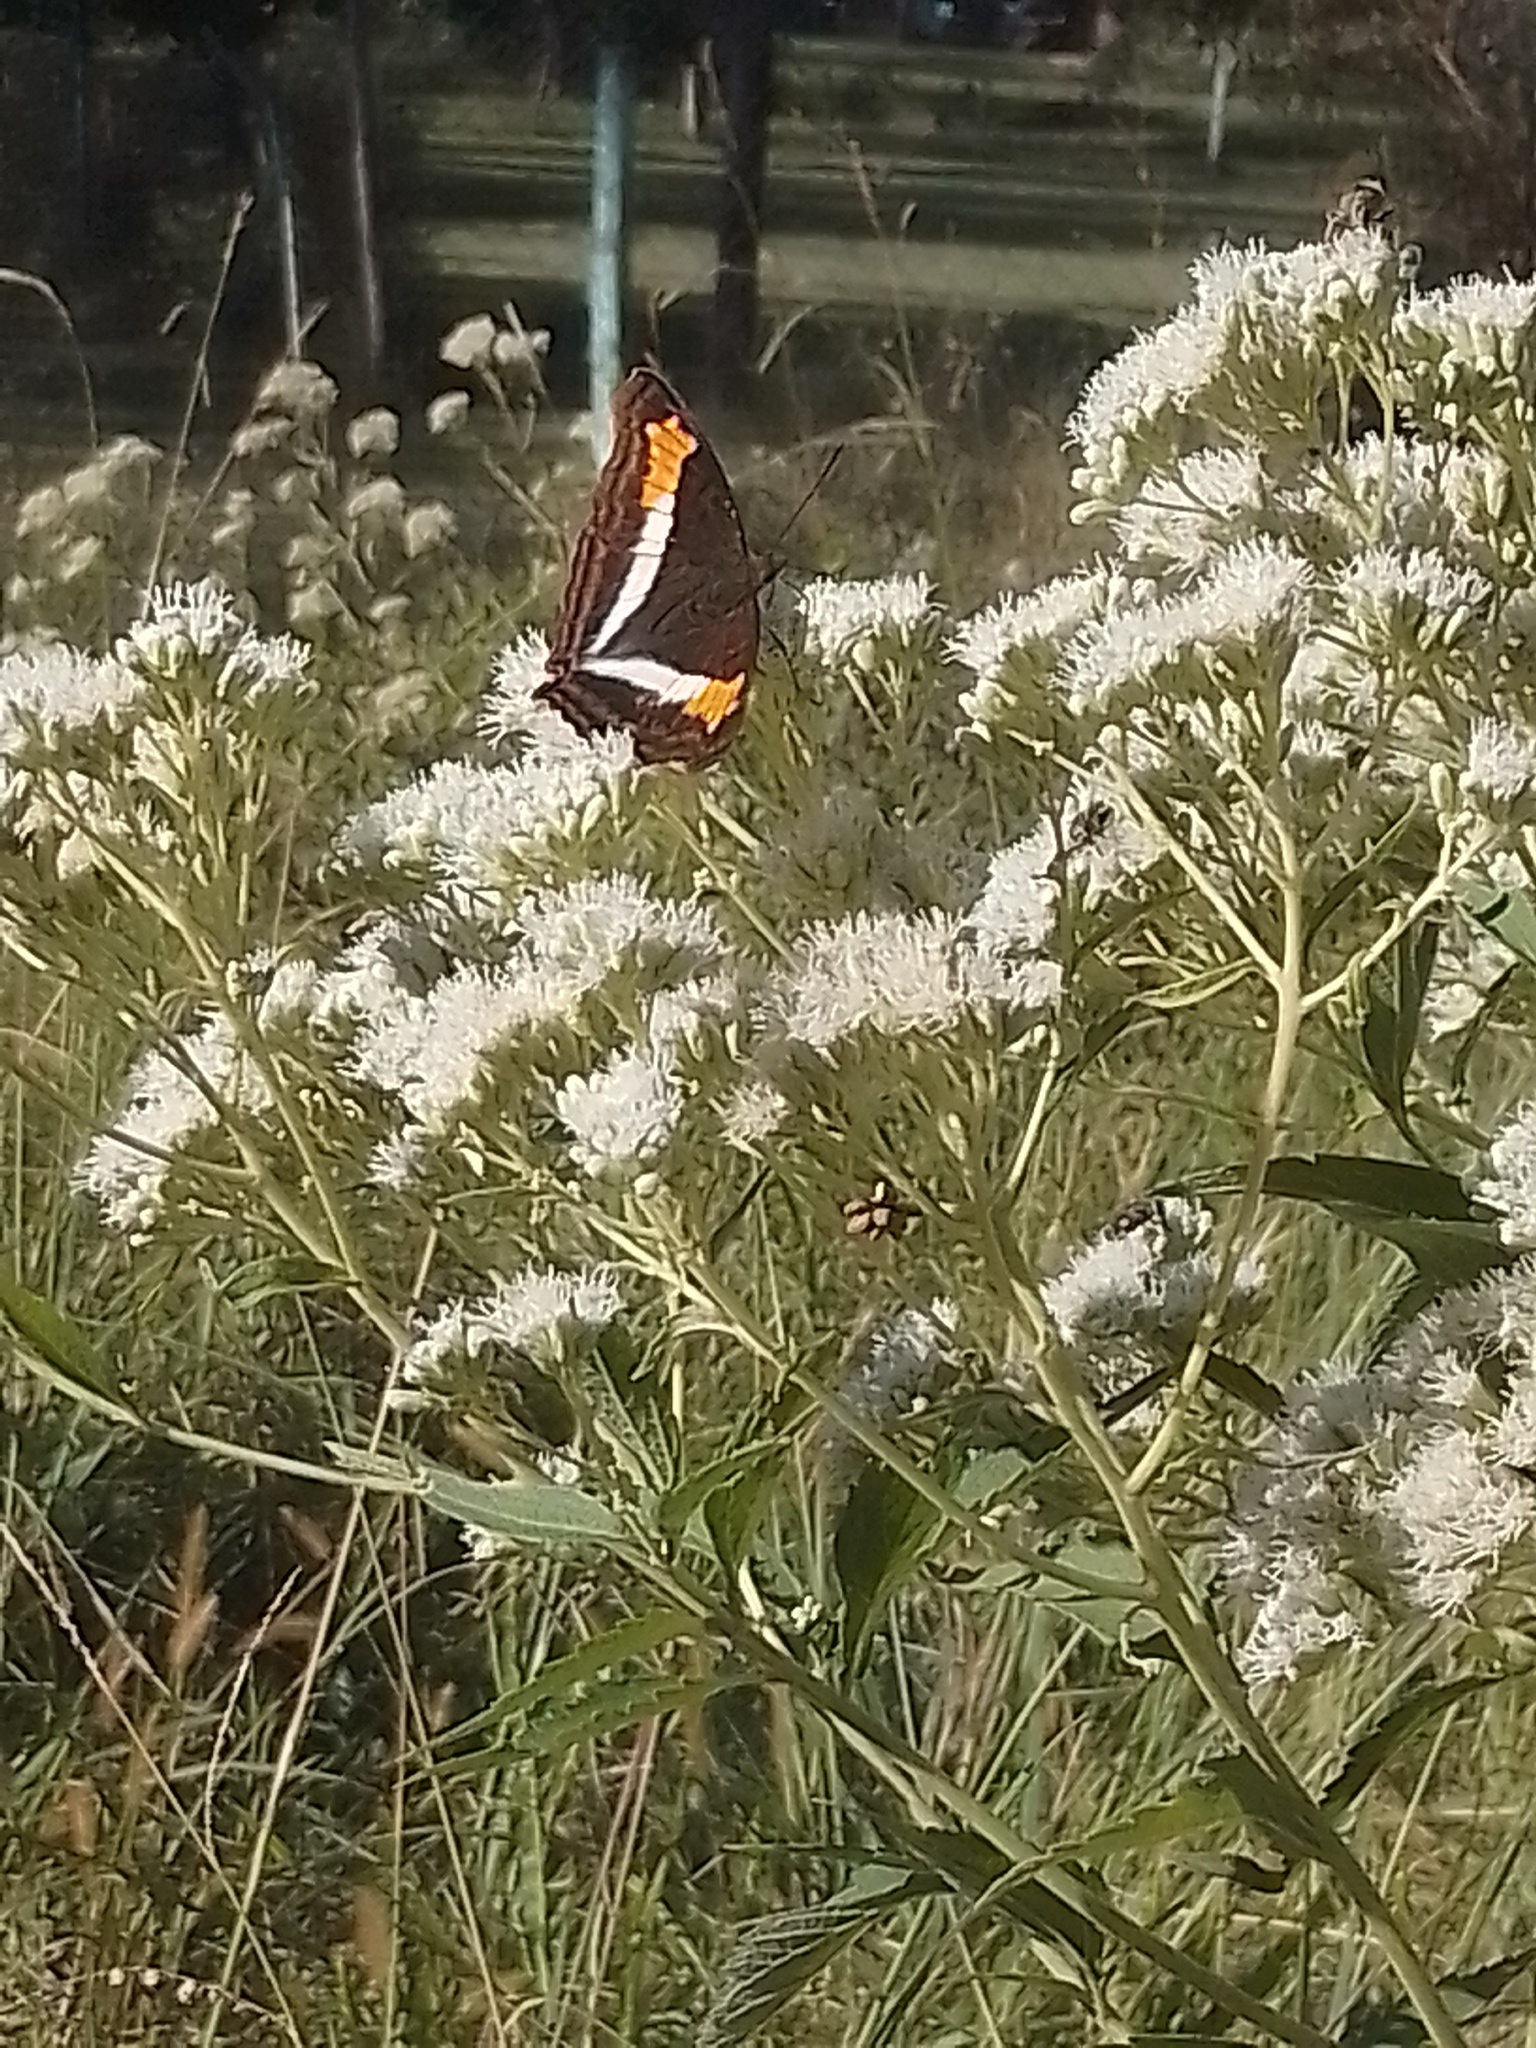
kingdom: Animalia
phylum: Arthropoda
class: Insecta
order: Lepidoptera
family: Nymphalidae
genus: Doxocopa
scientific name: Doxocopa laurentia
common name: Turquoise emperor
